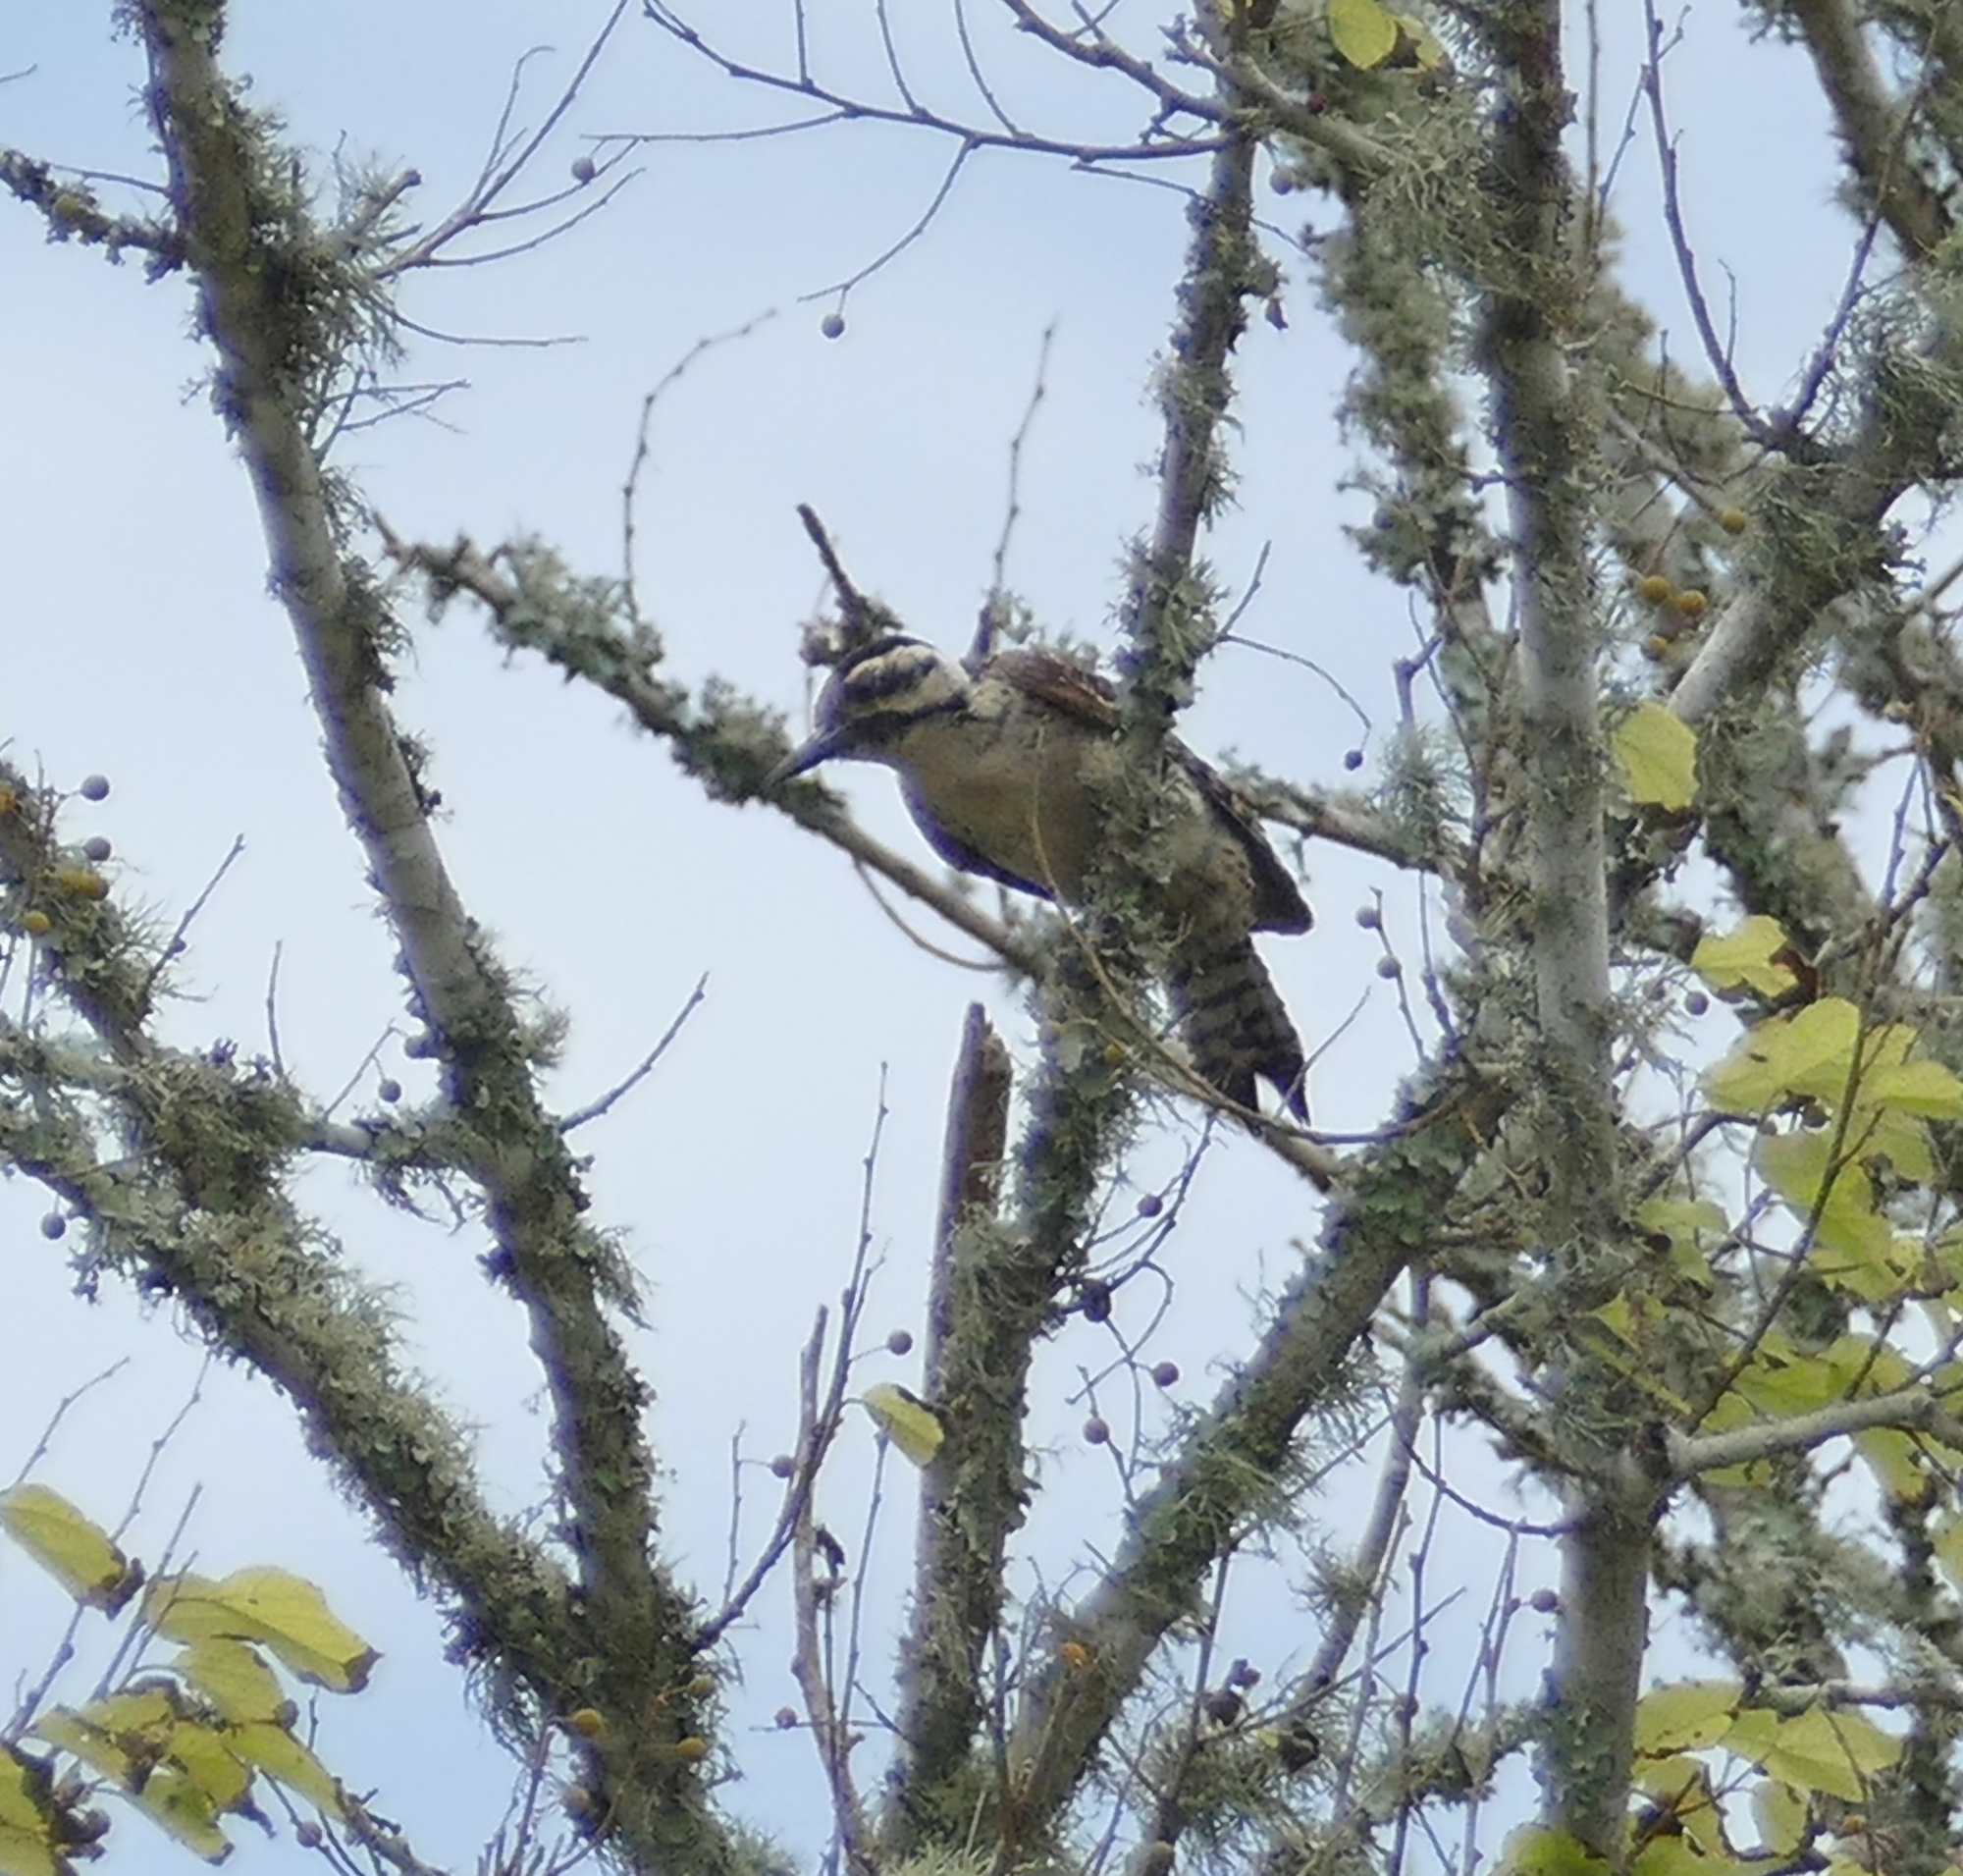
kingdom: Animalia
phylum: Chordata
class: Aves
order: Piciformes
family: Picidae
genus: Dryobates
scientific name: Dryobates scalaris
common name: Ladder-backed woodpecker
